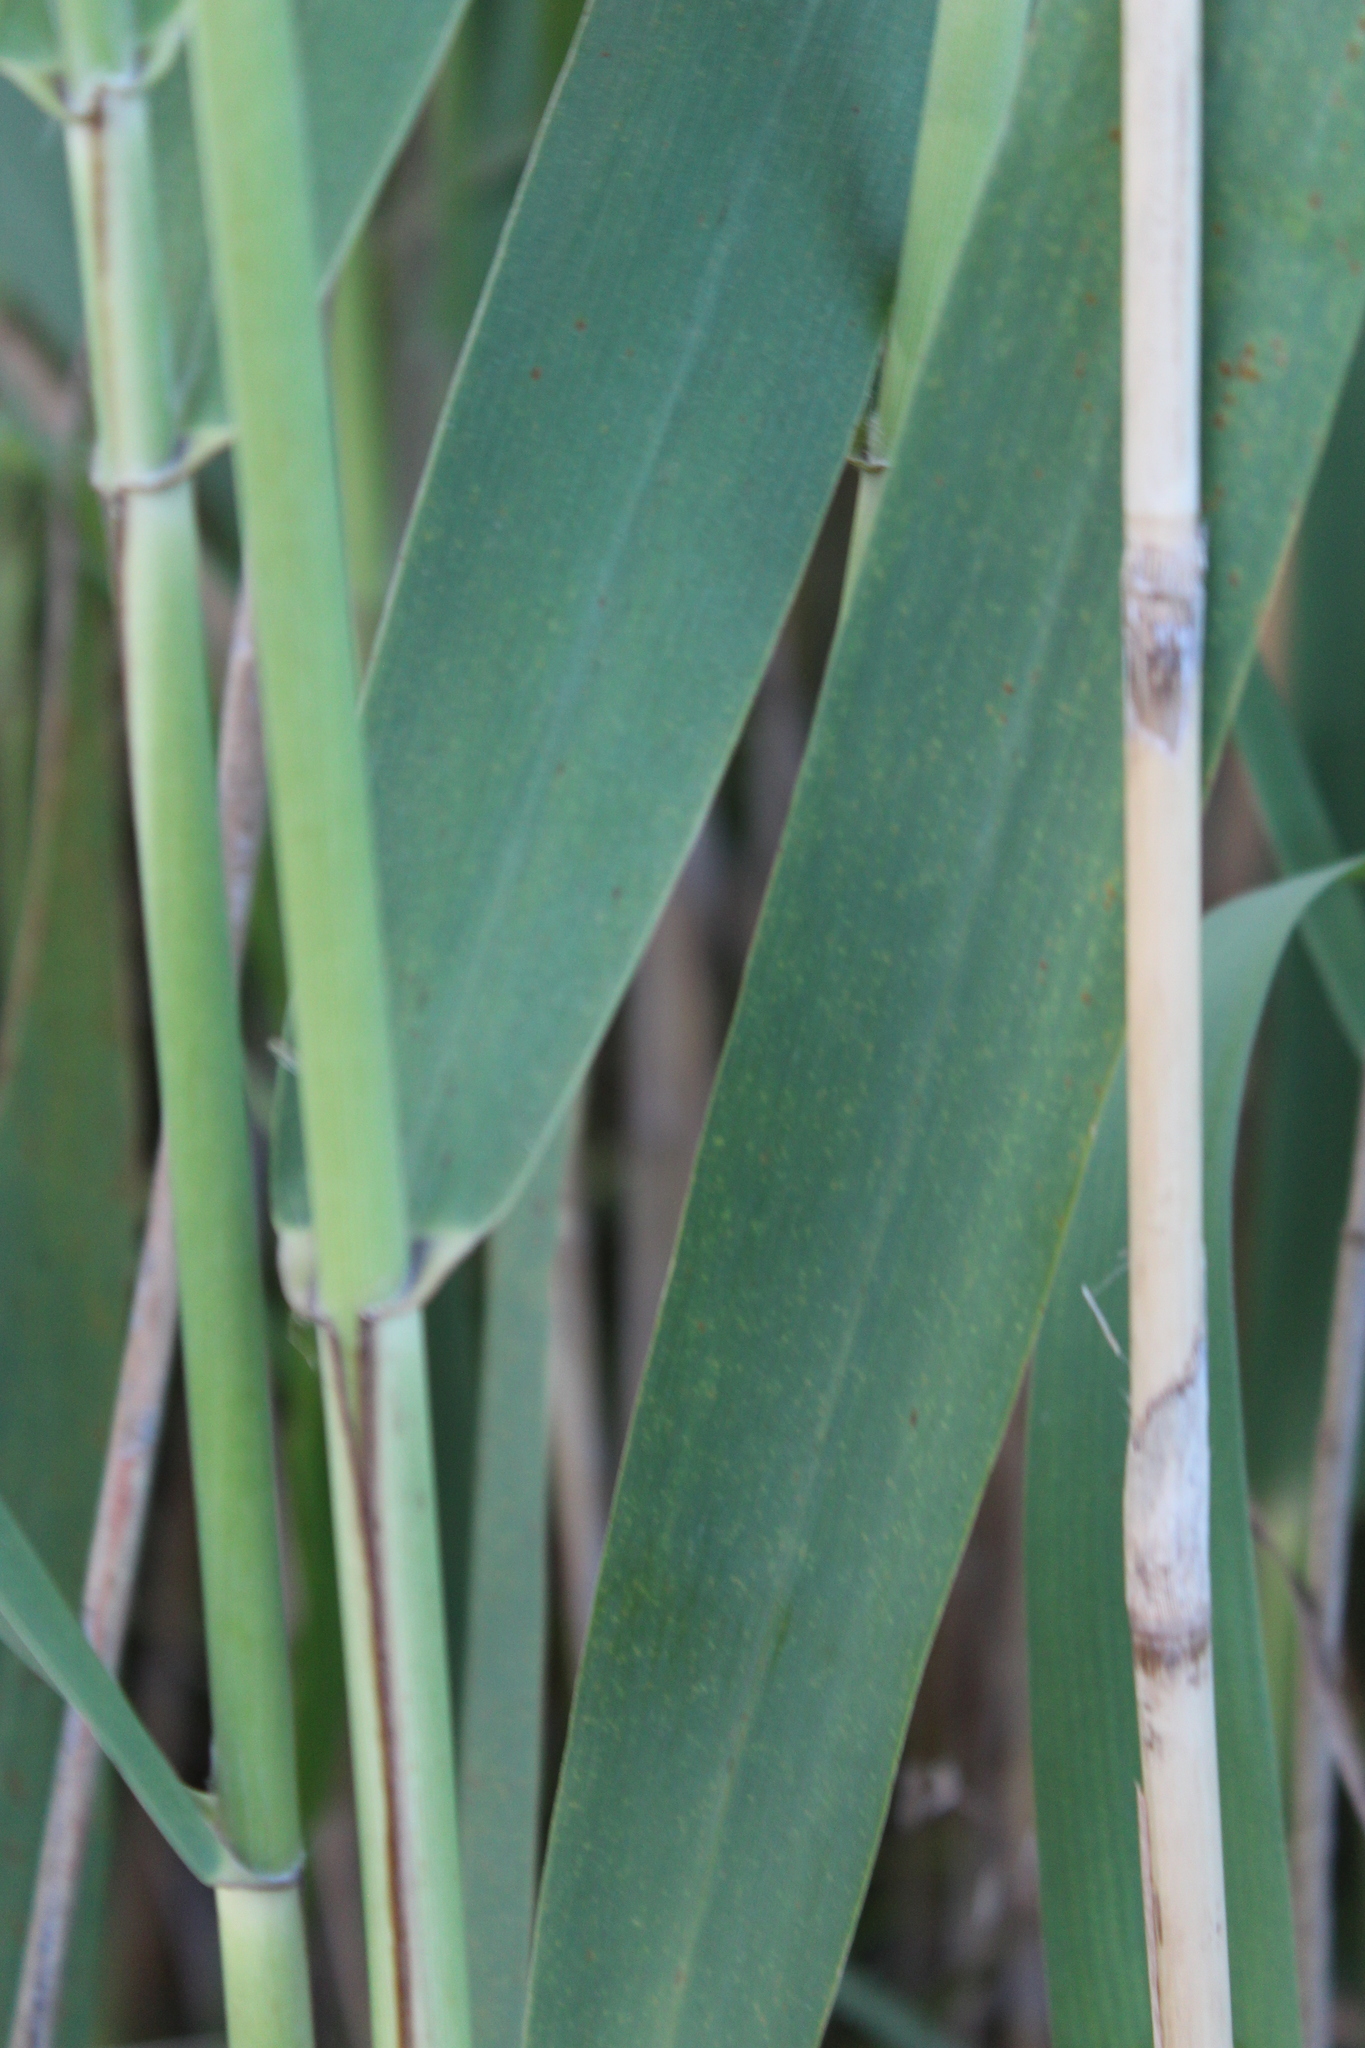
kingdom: Plantae
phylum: Tracheophyta
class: Liliopsida
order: Poales
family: Poaceae
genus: Phragmites
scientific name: Phragmites australis
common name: Common reed
